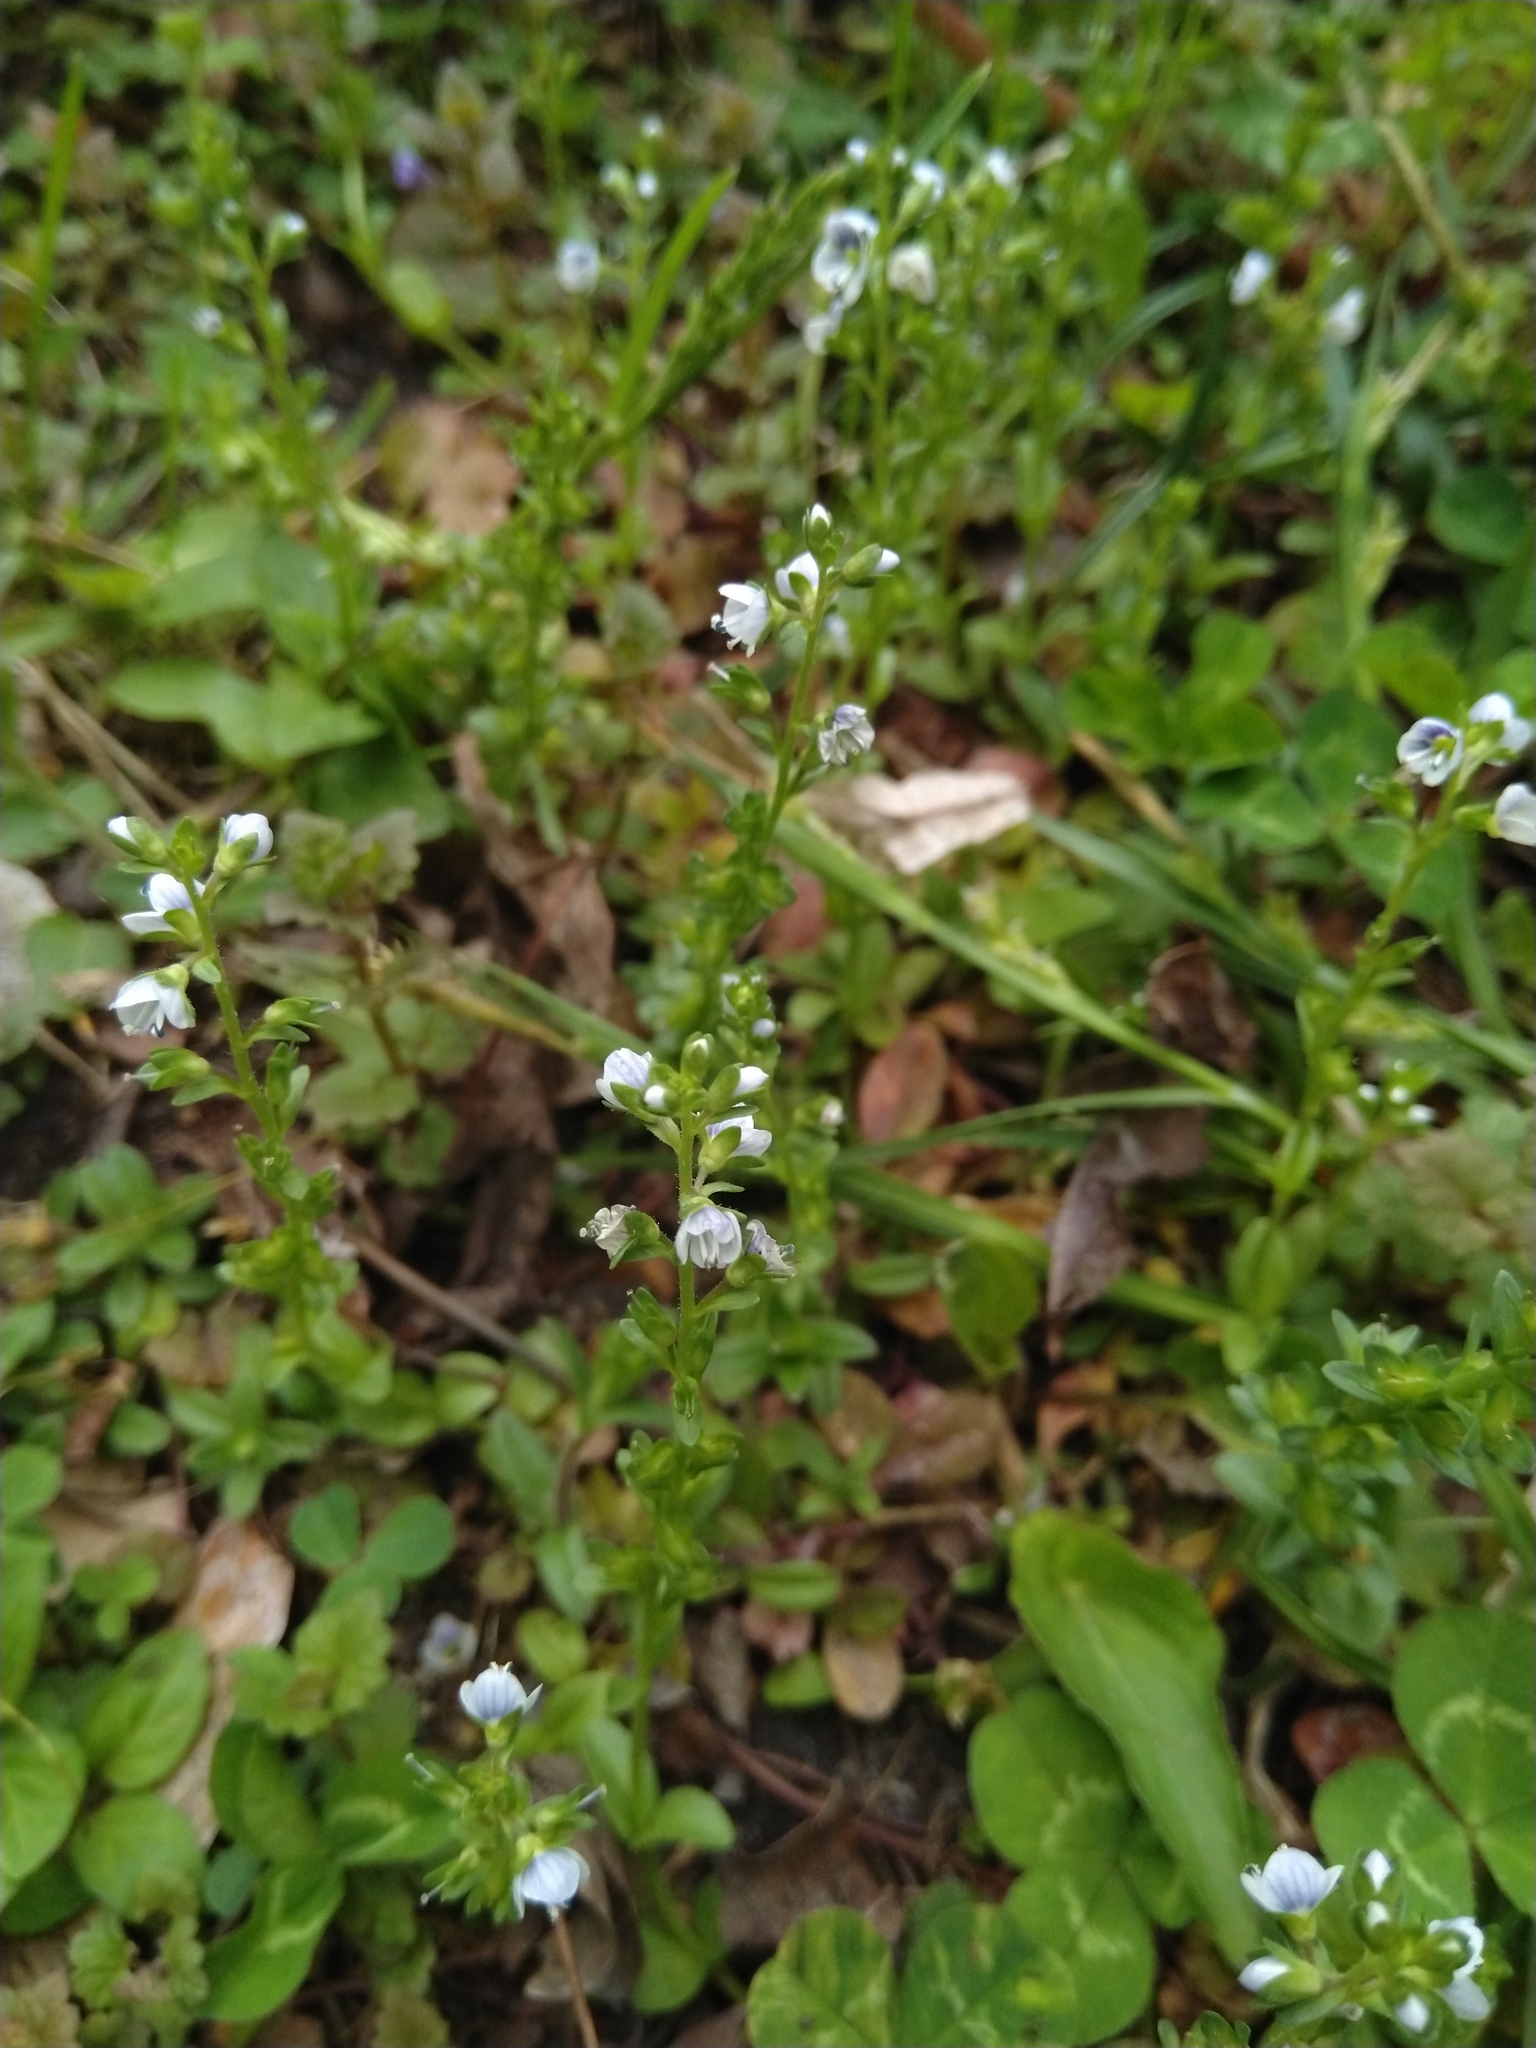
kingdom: Plantae
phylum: Tracheophyta
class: Magnoliopsida
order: Lamiales
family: Plantaginaceae
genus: Veronica
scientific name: Veronica serpyllifolia
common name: Thyme-leaved speedwell
